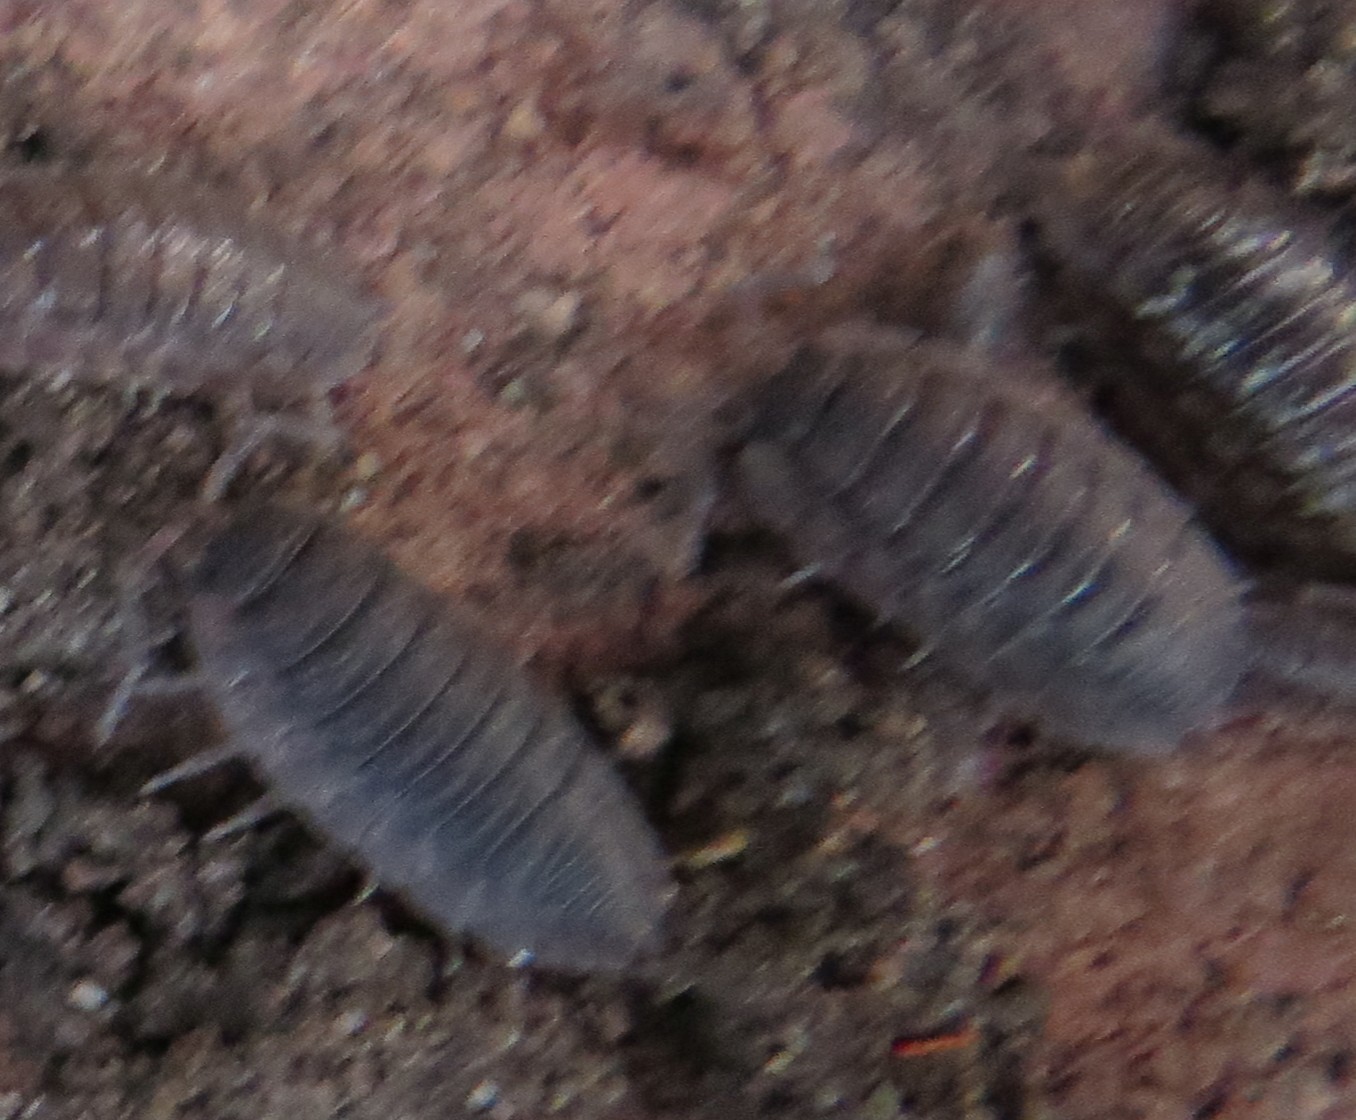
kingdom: Animalia
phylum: Arthropoda
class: Malacostraca
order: Isopoda
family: Porcellionidae
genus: Porcellio
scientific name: Porcellio scaber
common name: Common rough woodlouse
